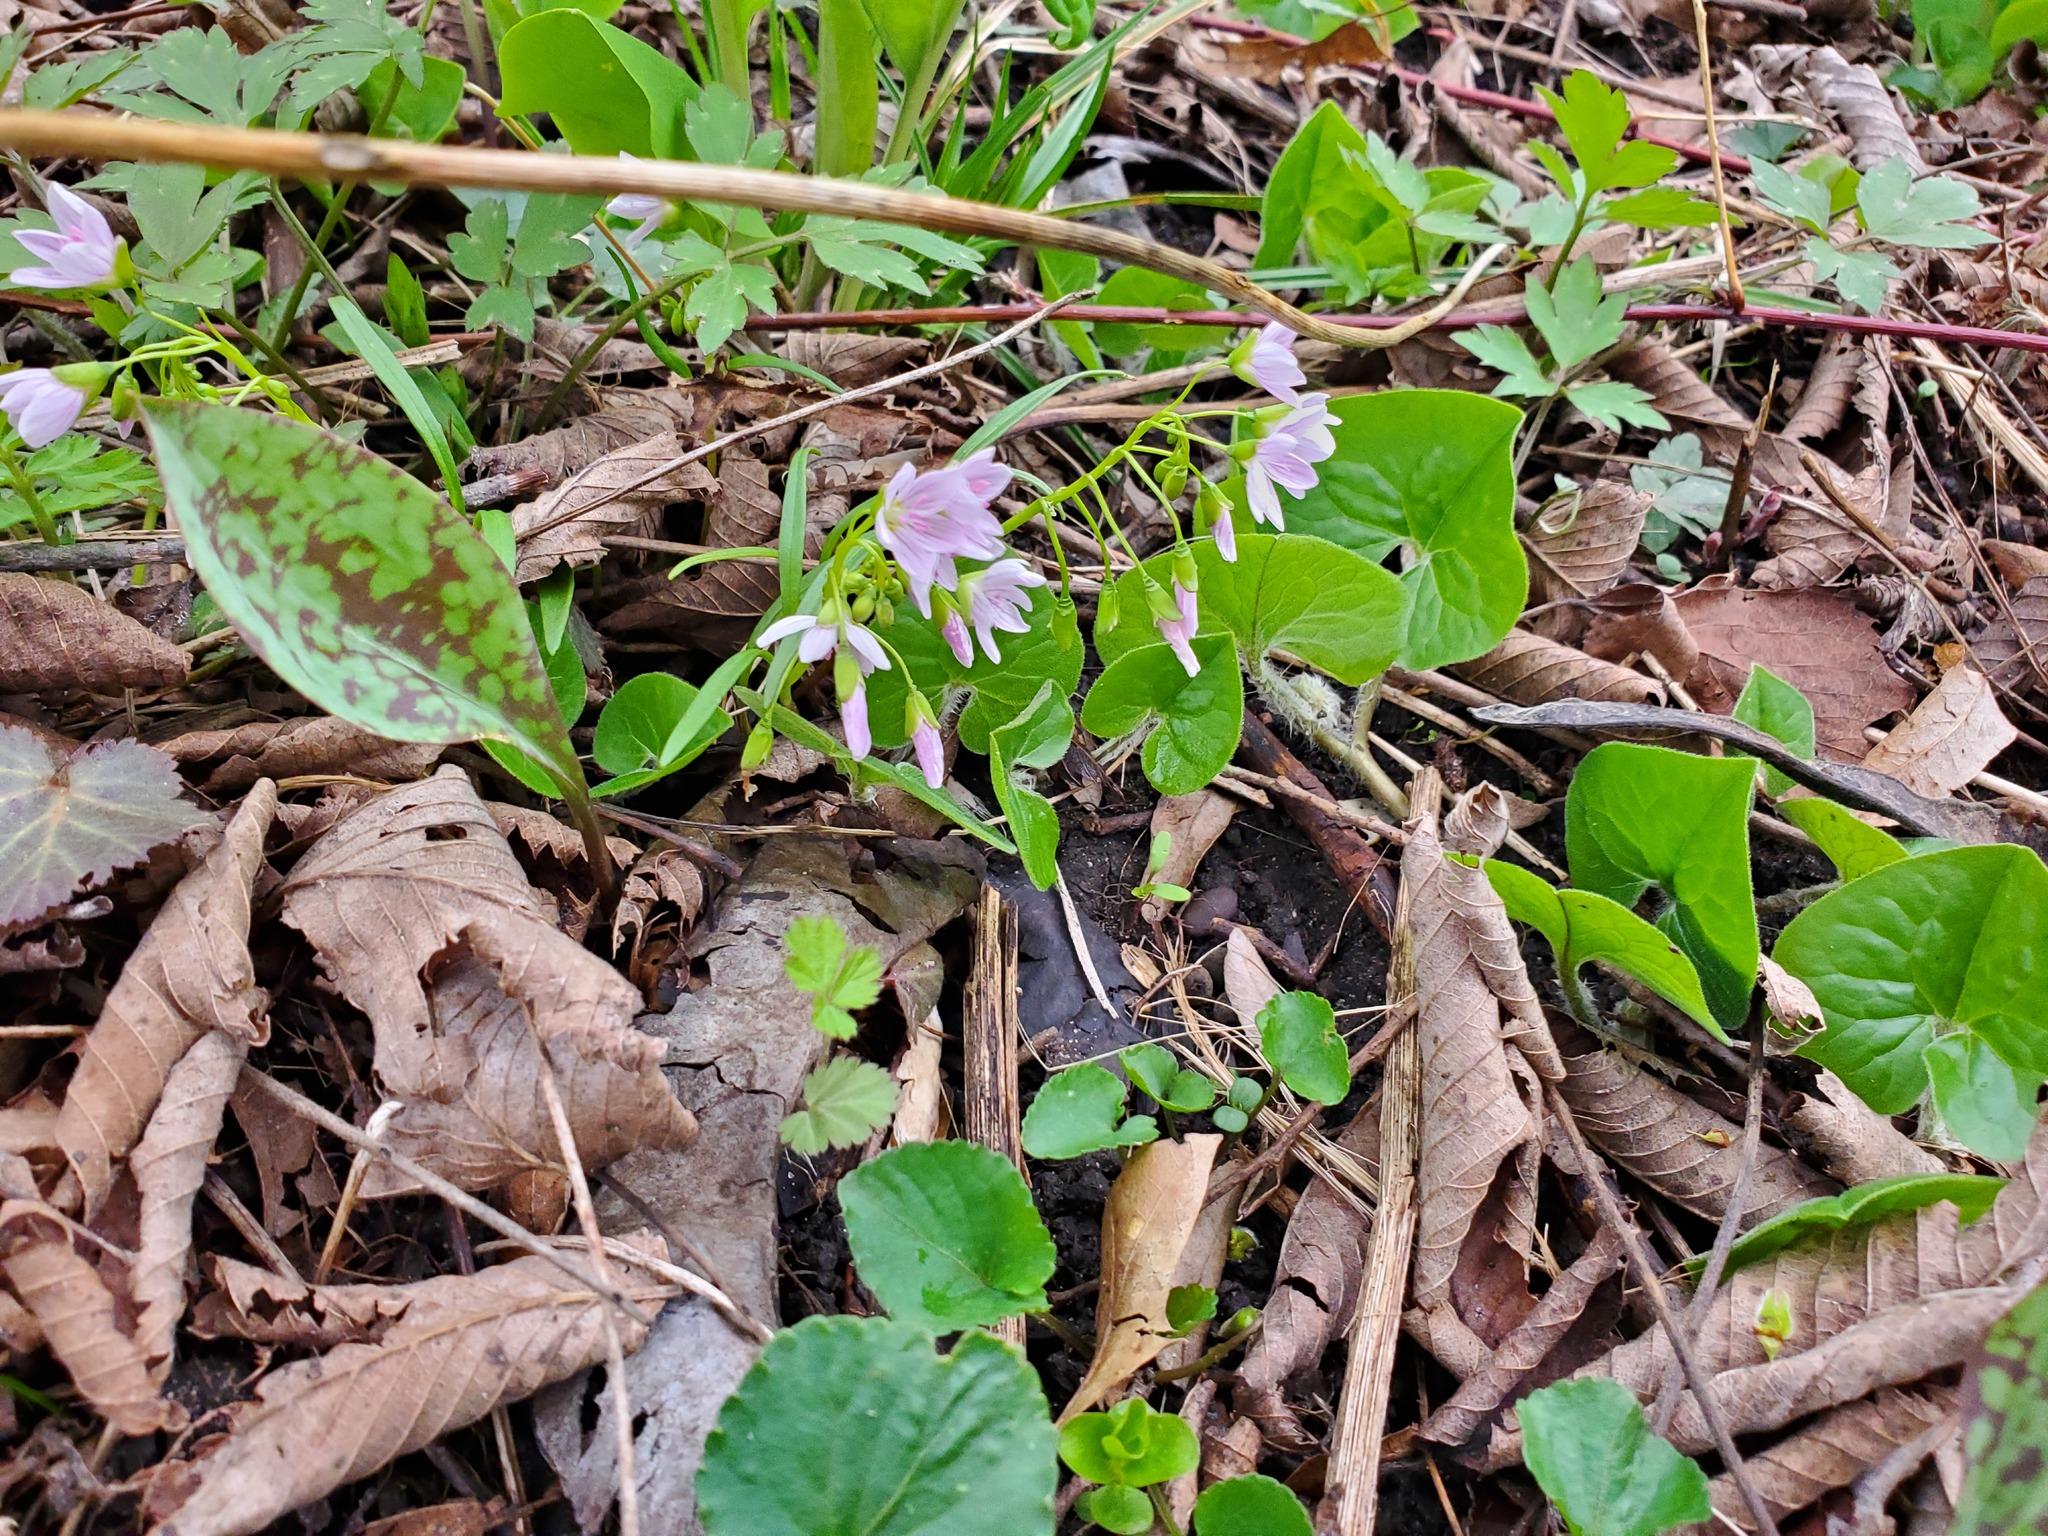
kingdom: Plantae
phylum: Tracheophyta
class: Magnoliopsida
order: Caryophyllales
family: Montiaceae
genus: Claytonia
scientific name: Claytonia virginica
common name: Virginia springbeauty
